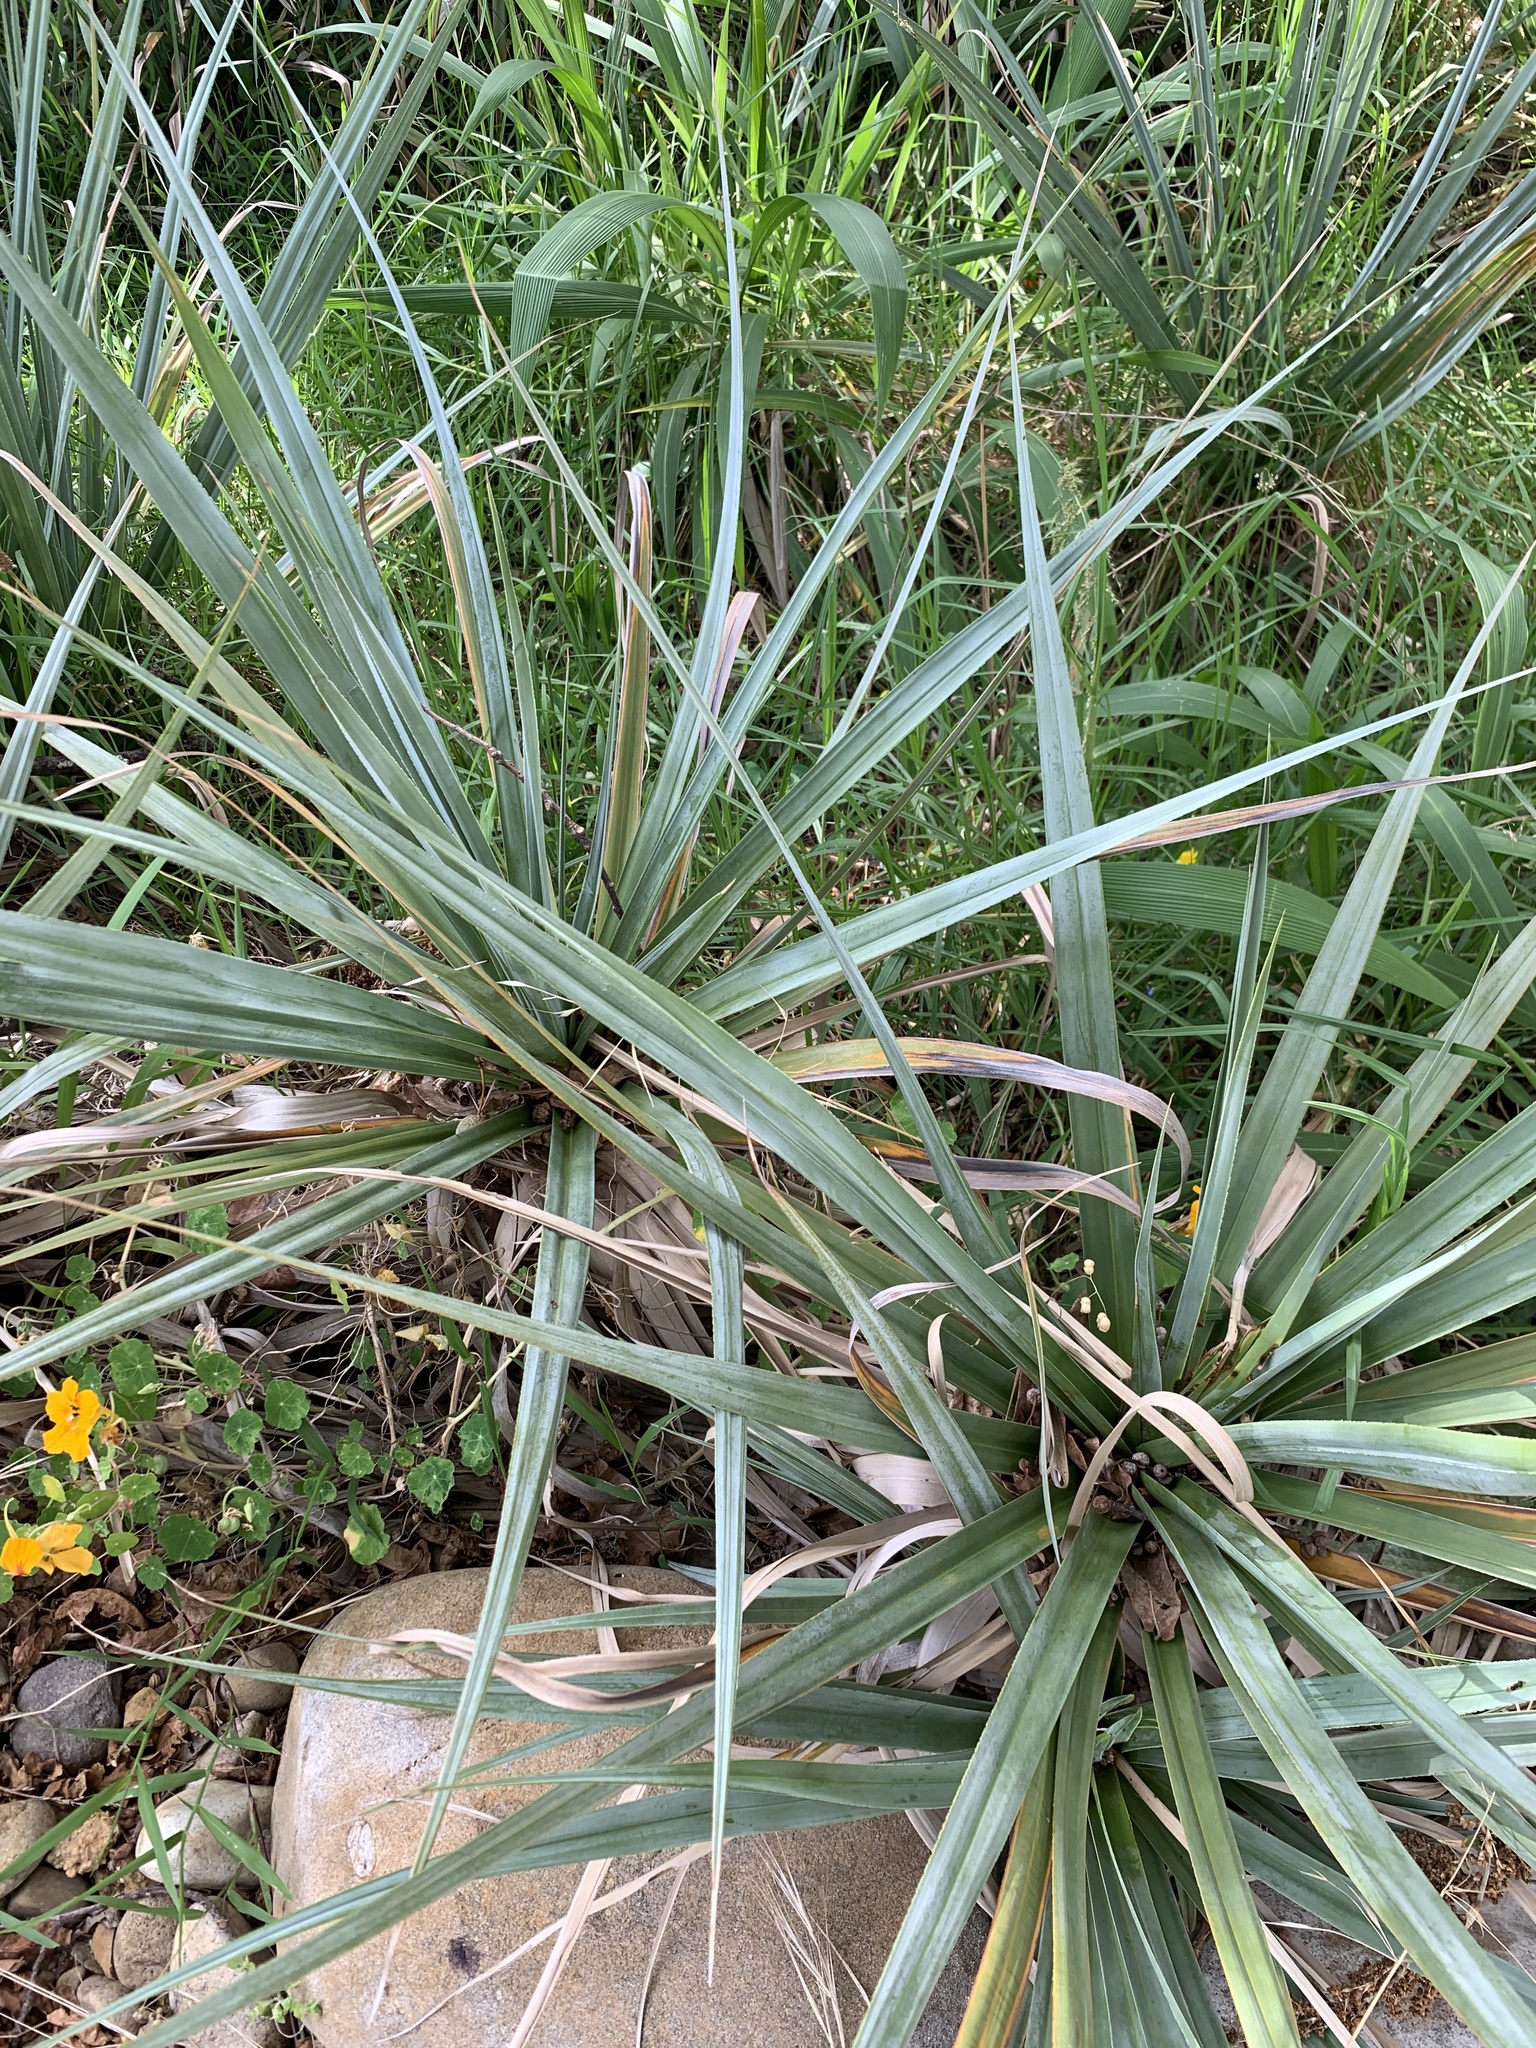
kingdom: Plantae
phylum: Tracheophyta
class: Liliopsida
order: Poales
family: Thurniaceae
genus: Prionium
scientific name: Prionium serratum
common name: Palmiet
